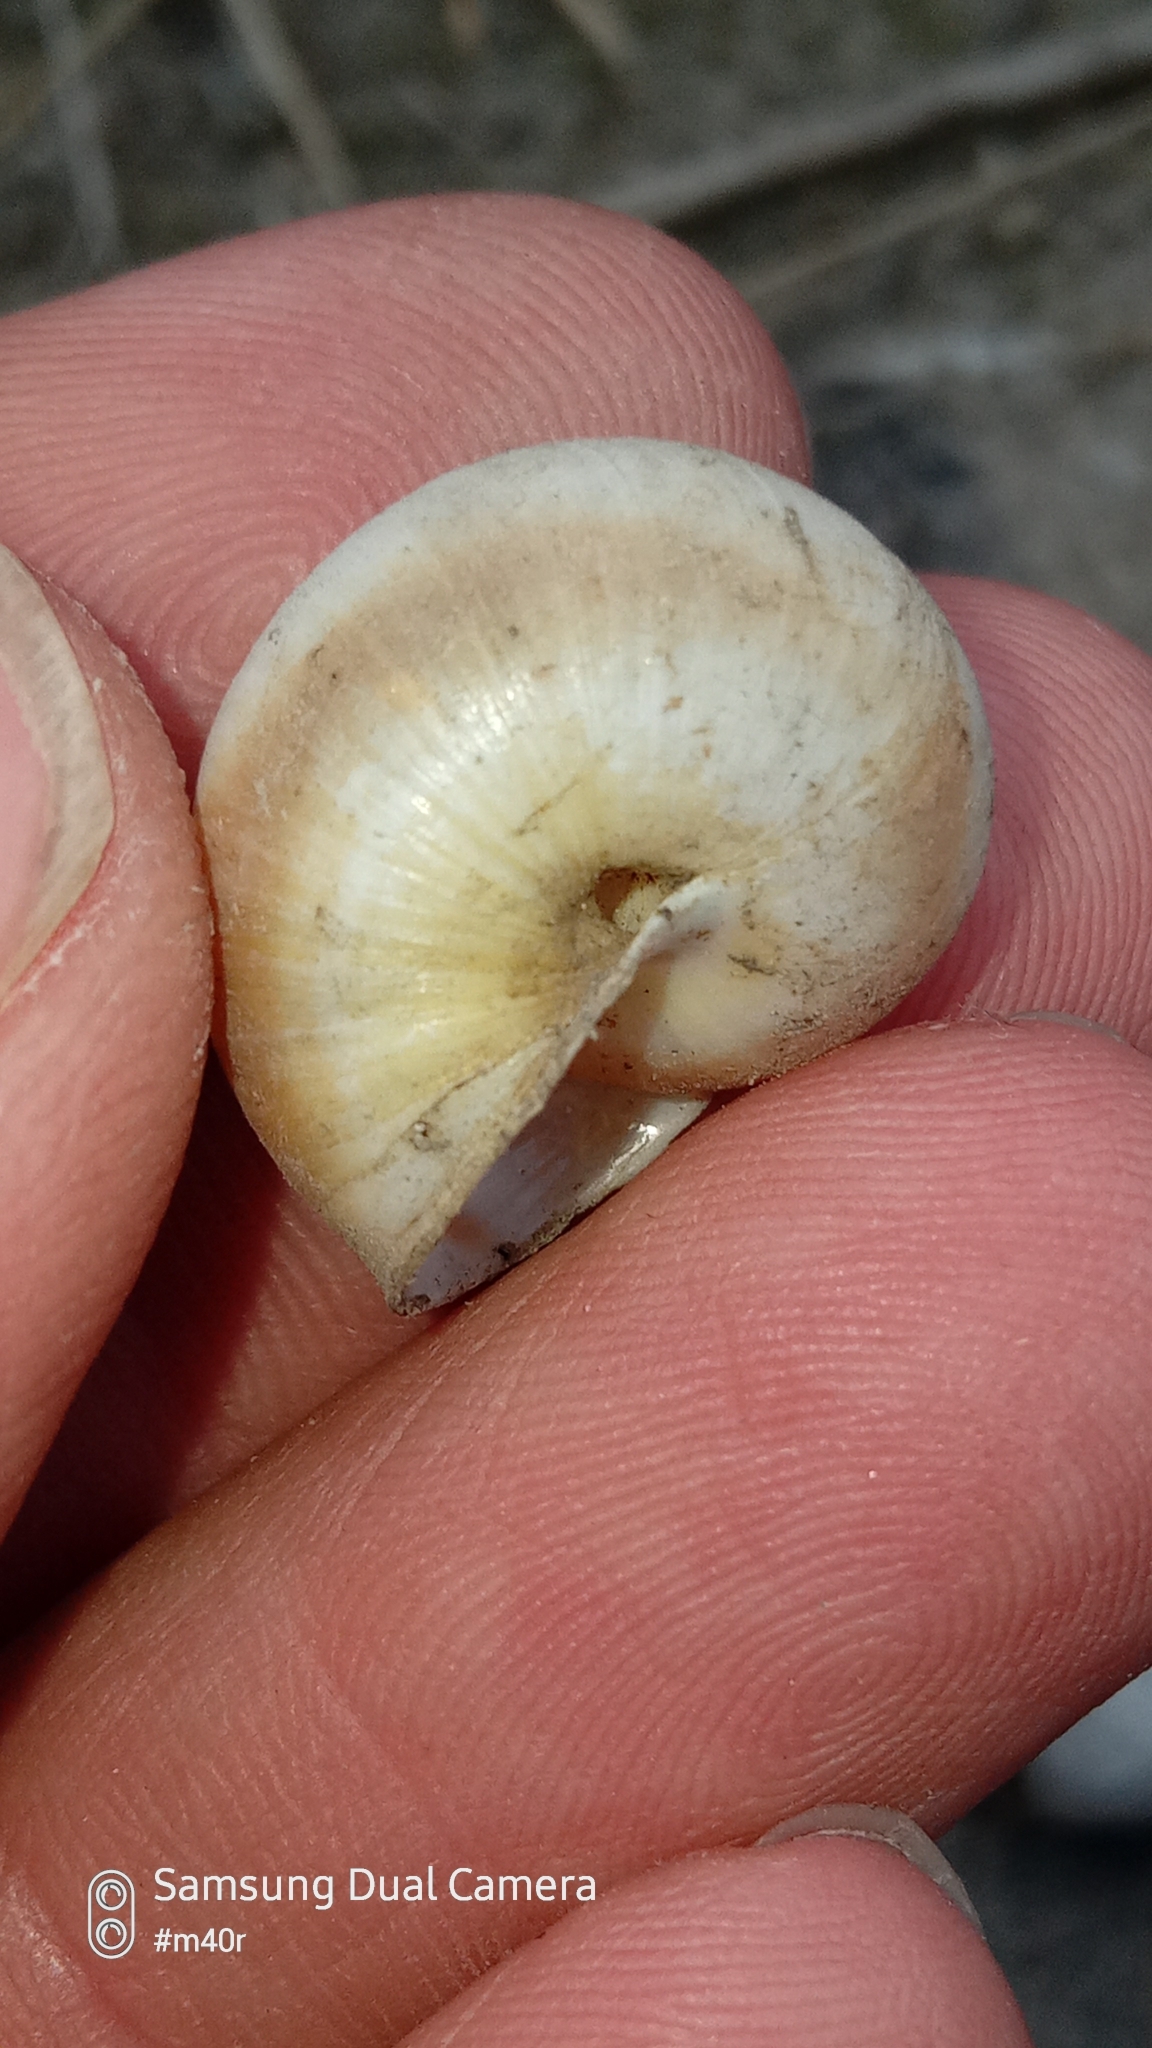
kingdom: Animalia
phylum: Mollusca
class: Gastropoda
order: Stylommatophora
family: Camaenidae
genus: Fruticicola
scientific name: Fruticicola lantzi
